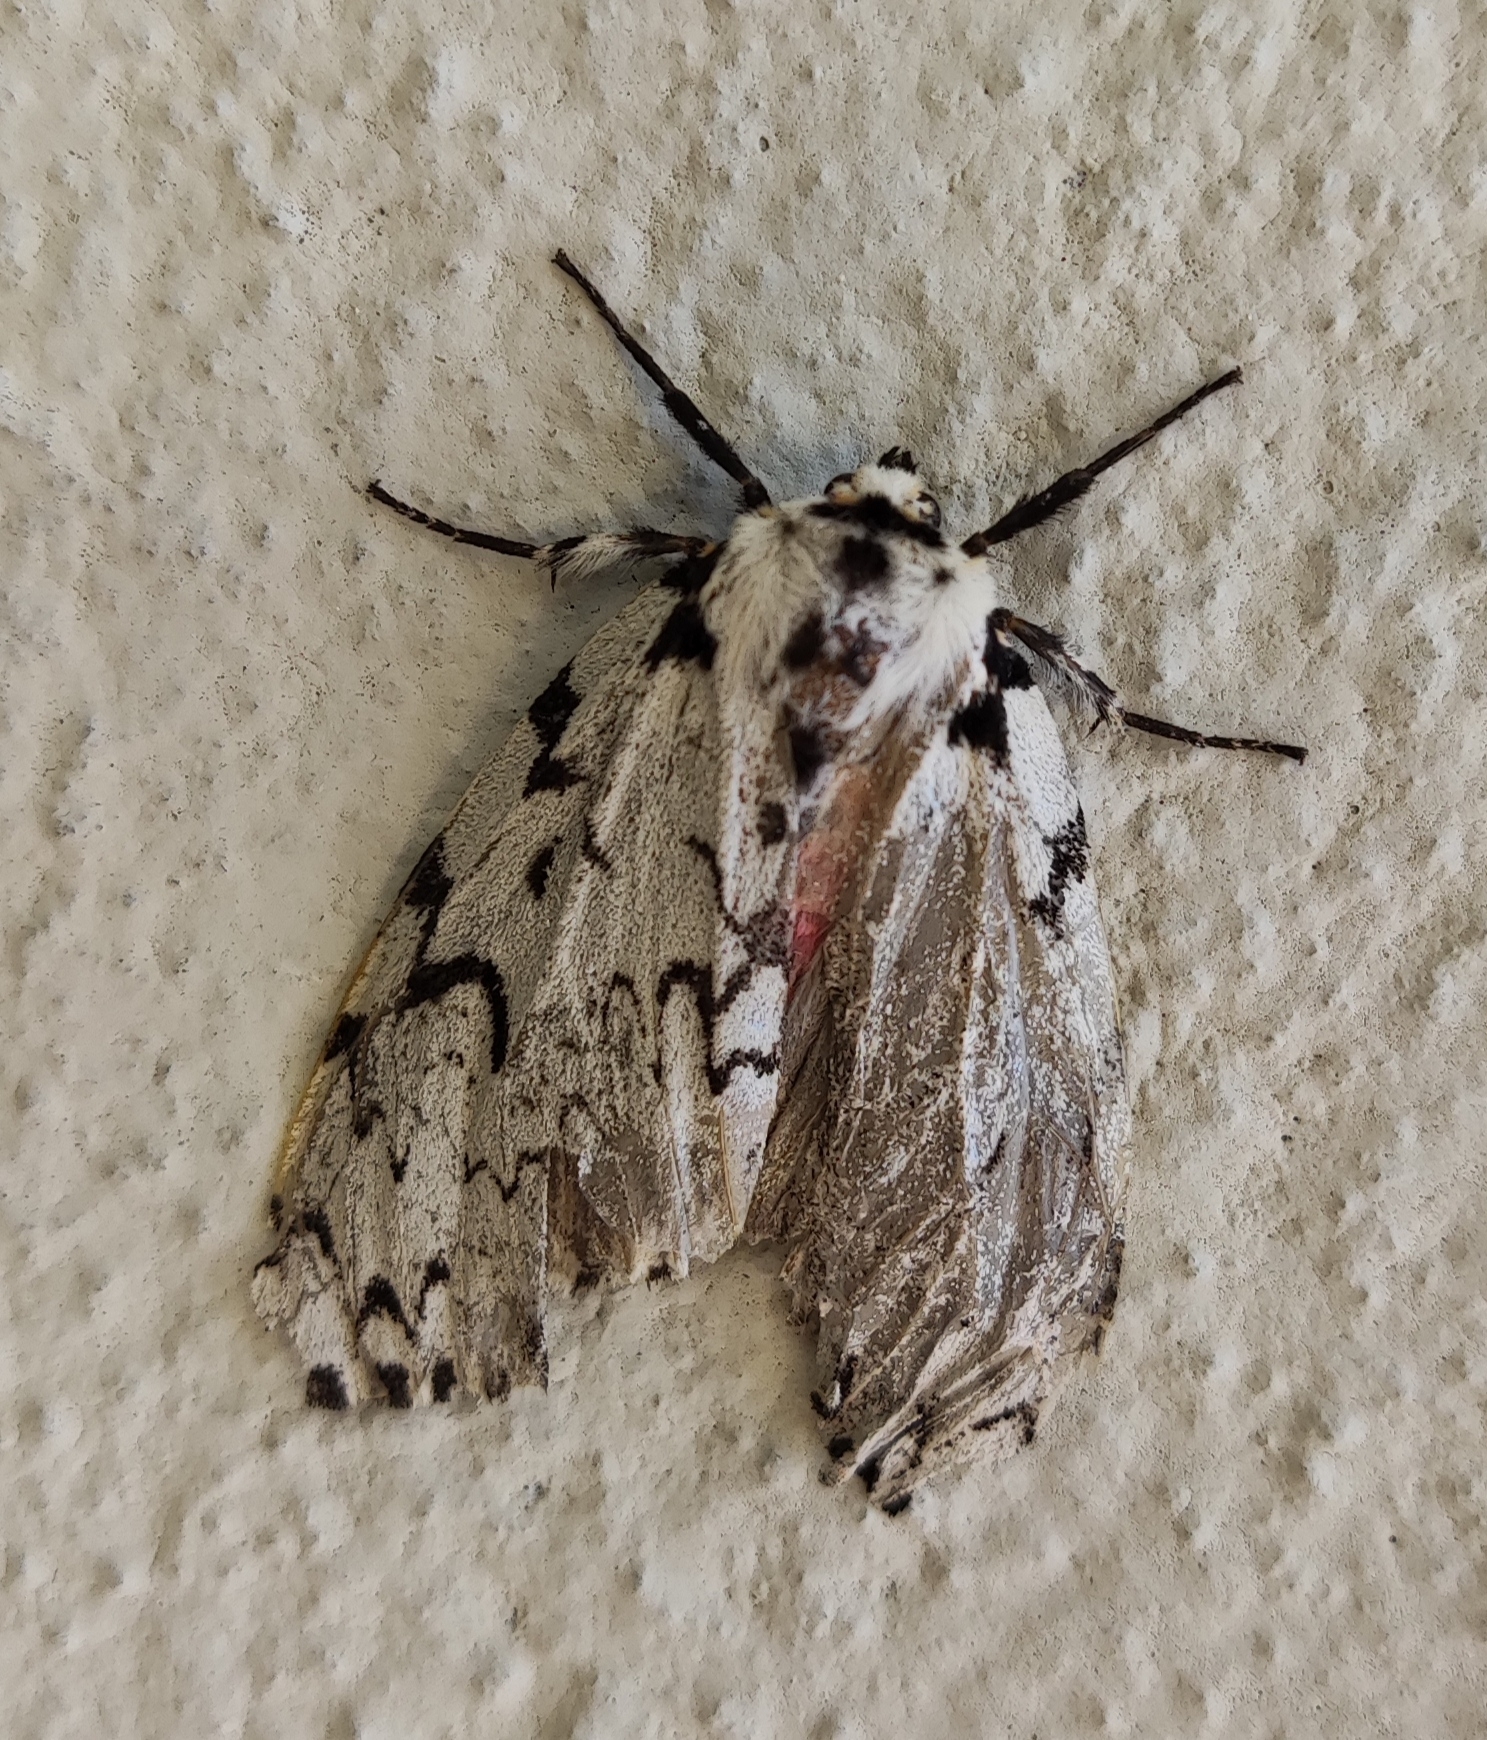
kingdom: Animalia
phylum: Arthropoda
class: Insecta
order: Lepidoptera
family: Erebidae
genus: Lymantria
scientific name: Lymantria monacha
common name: Black arches
